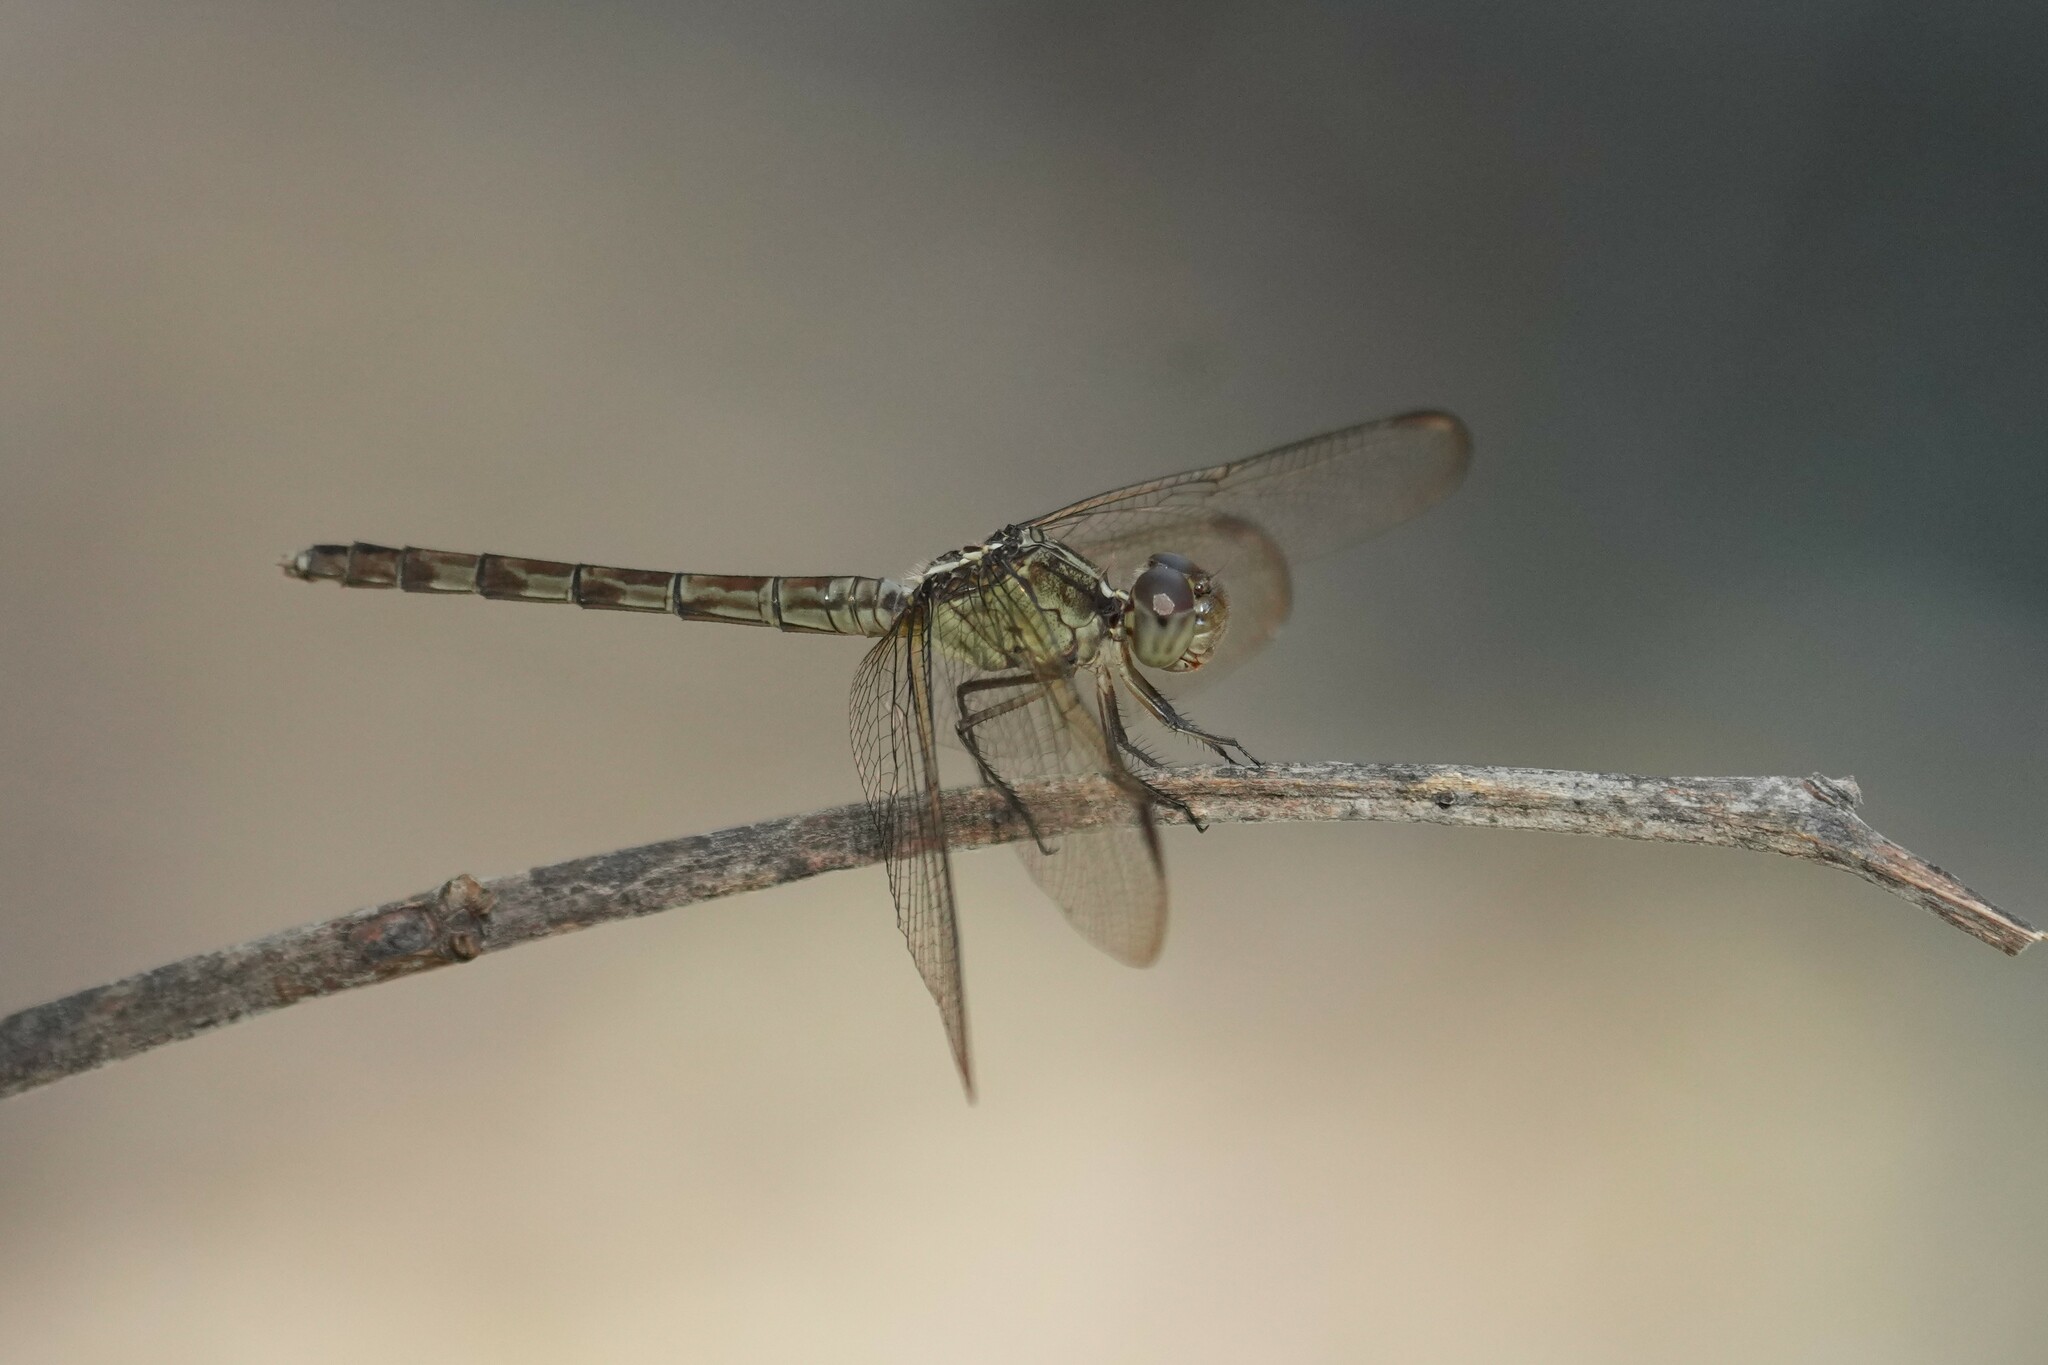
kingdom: Animalia
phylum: Arthropoda
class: Insecta
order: Odonata
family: Libellulidae
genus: Erythrodiplax
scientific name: Erythrodiplax umbrata
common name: Band-winged dragonlet
